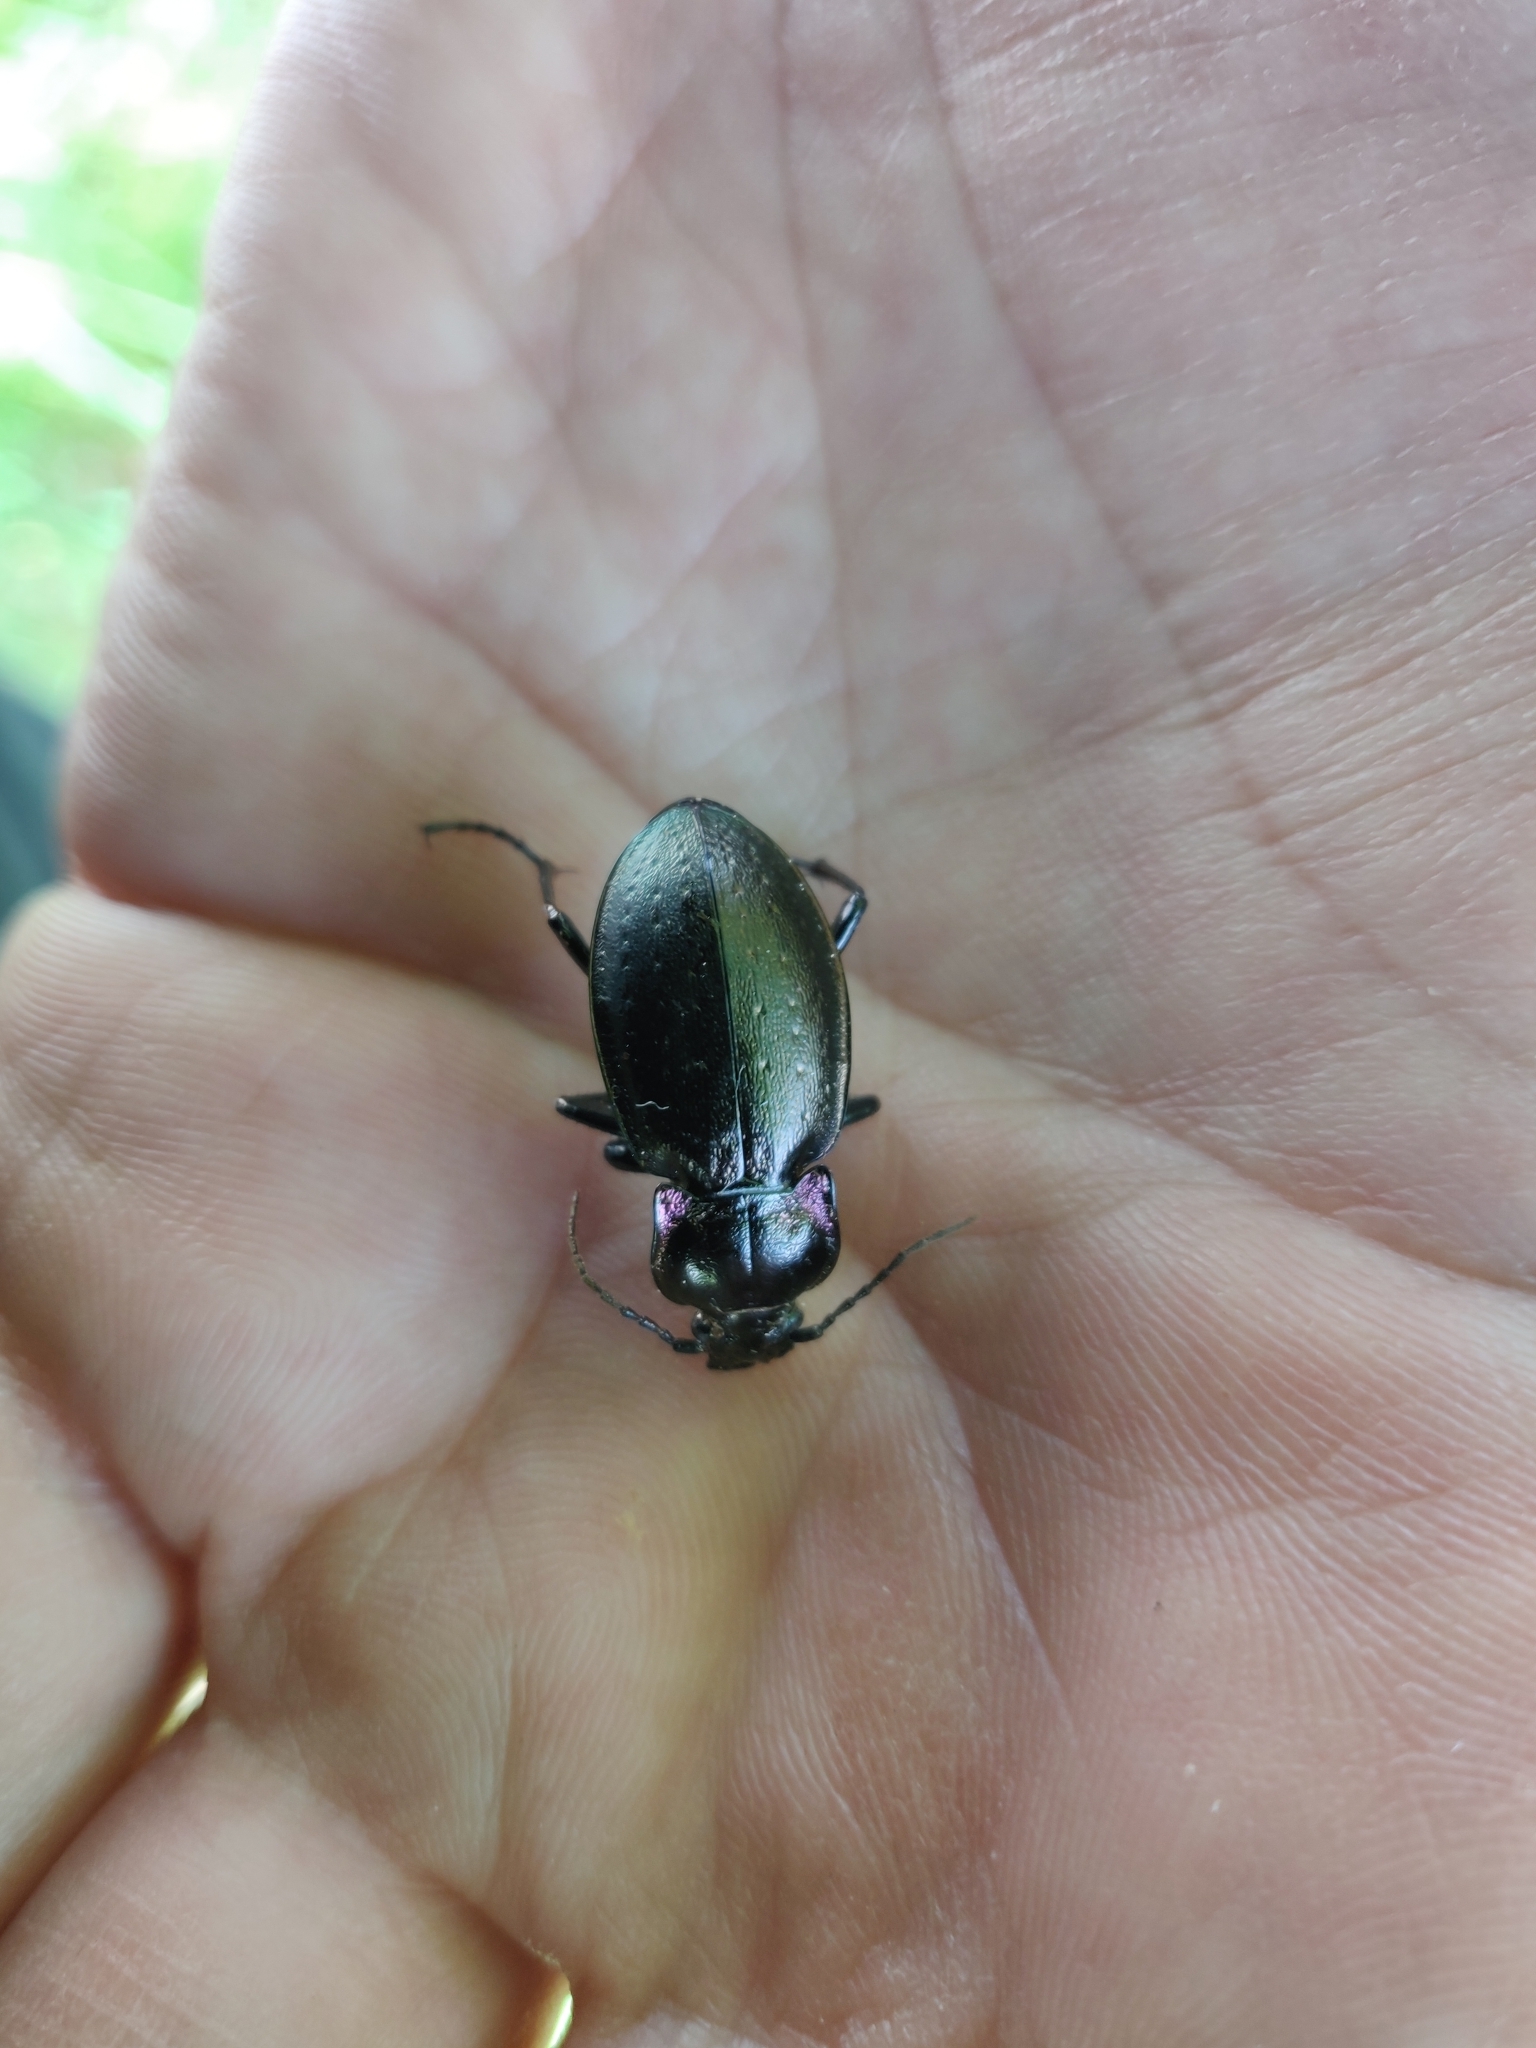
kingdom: Animalia
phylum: Arthropoda
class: Insecta
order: Coleoptera
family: Carabidae
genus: Carabus
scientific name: Carabus nemoralis
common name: European ground beetle
